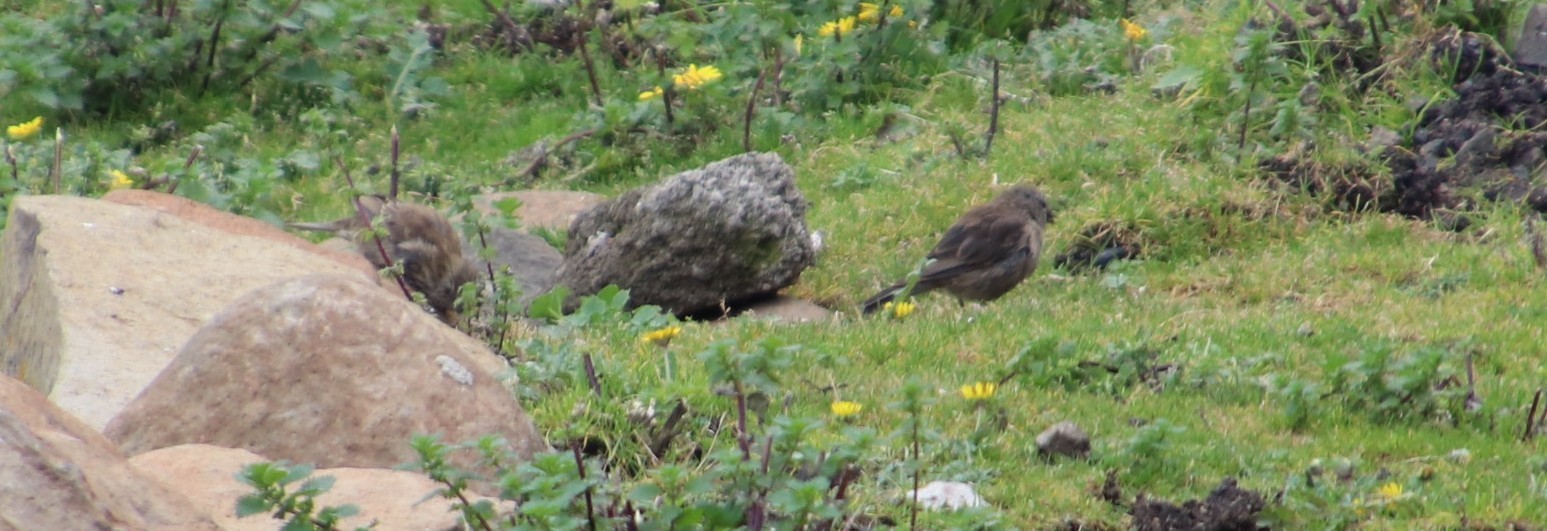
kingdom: Animalia
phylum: Chordata
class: Aves
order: Passeriformes
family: Fringillidae
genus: Crithagra
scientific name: Crithagra symonsi
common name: Drakensberg siskin
